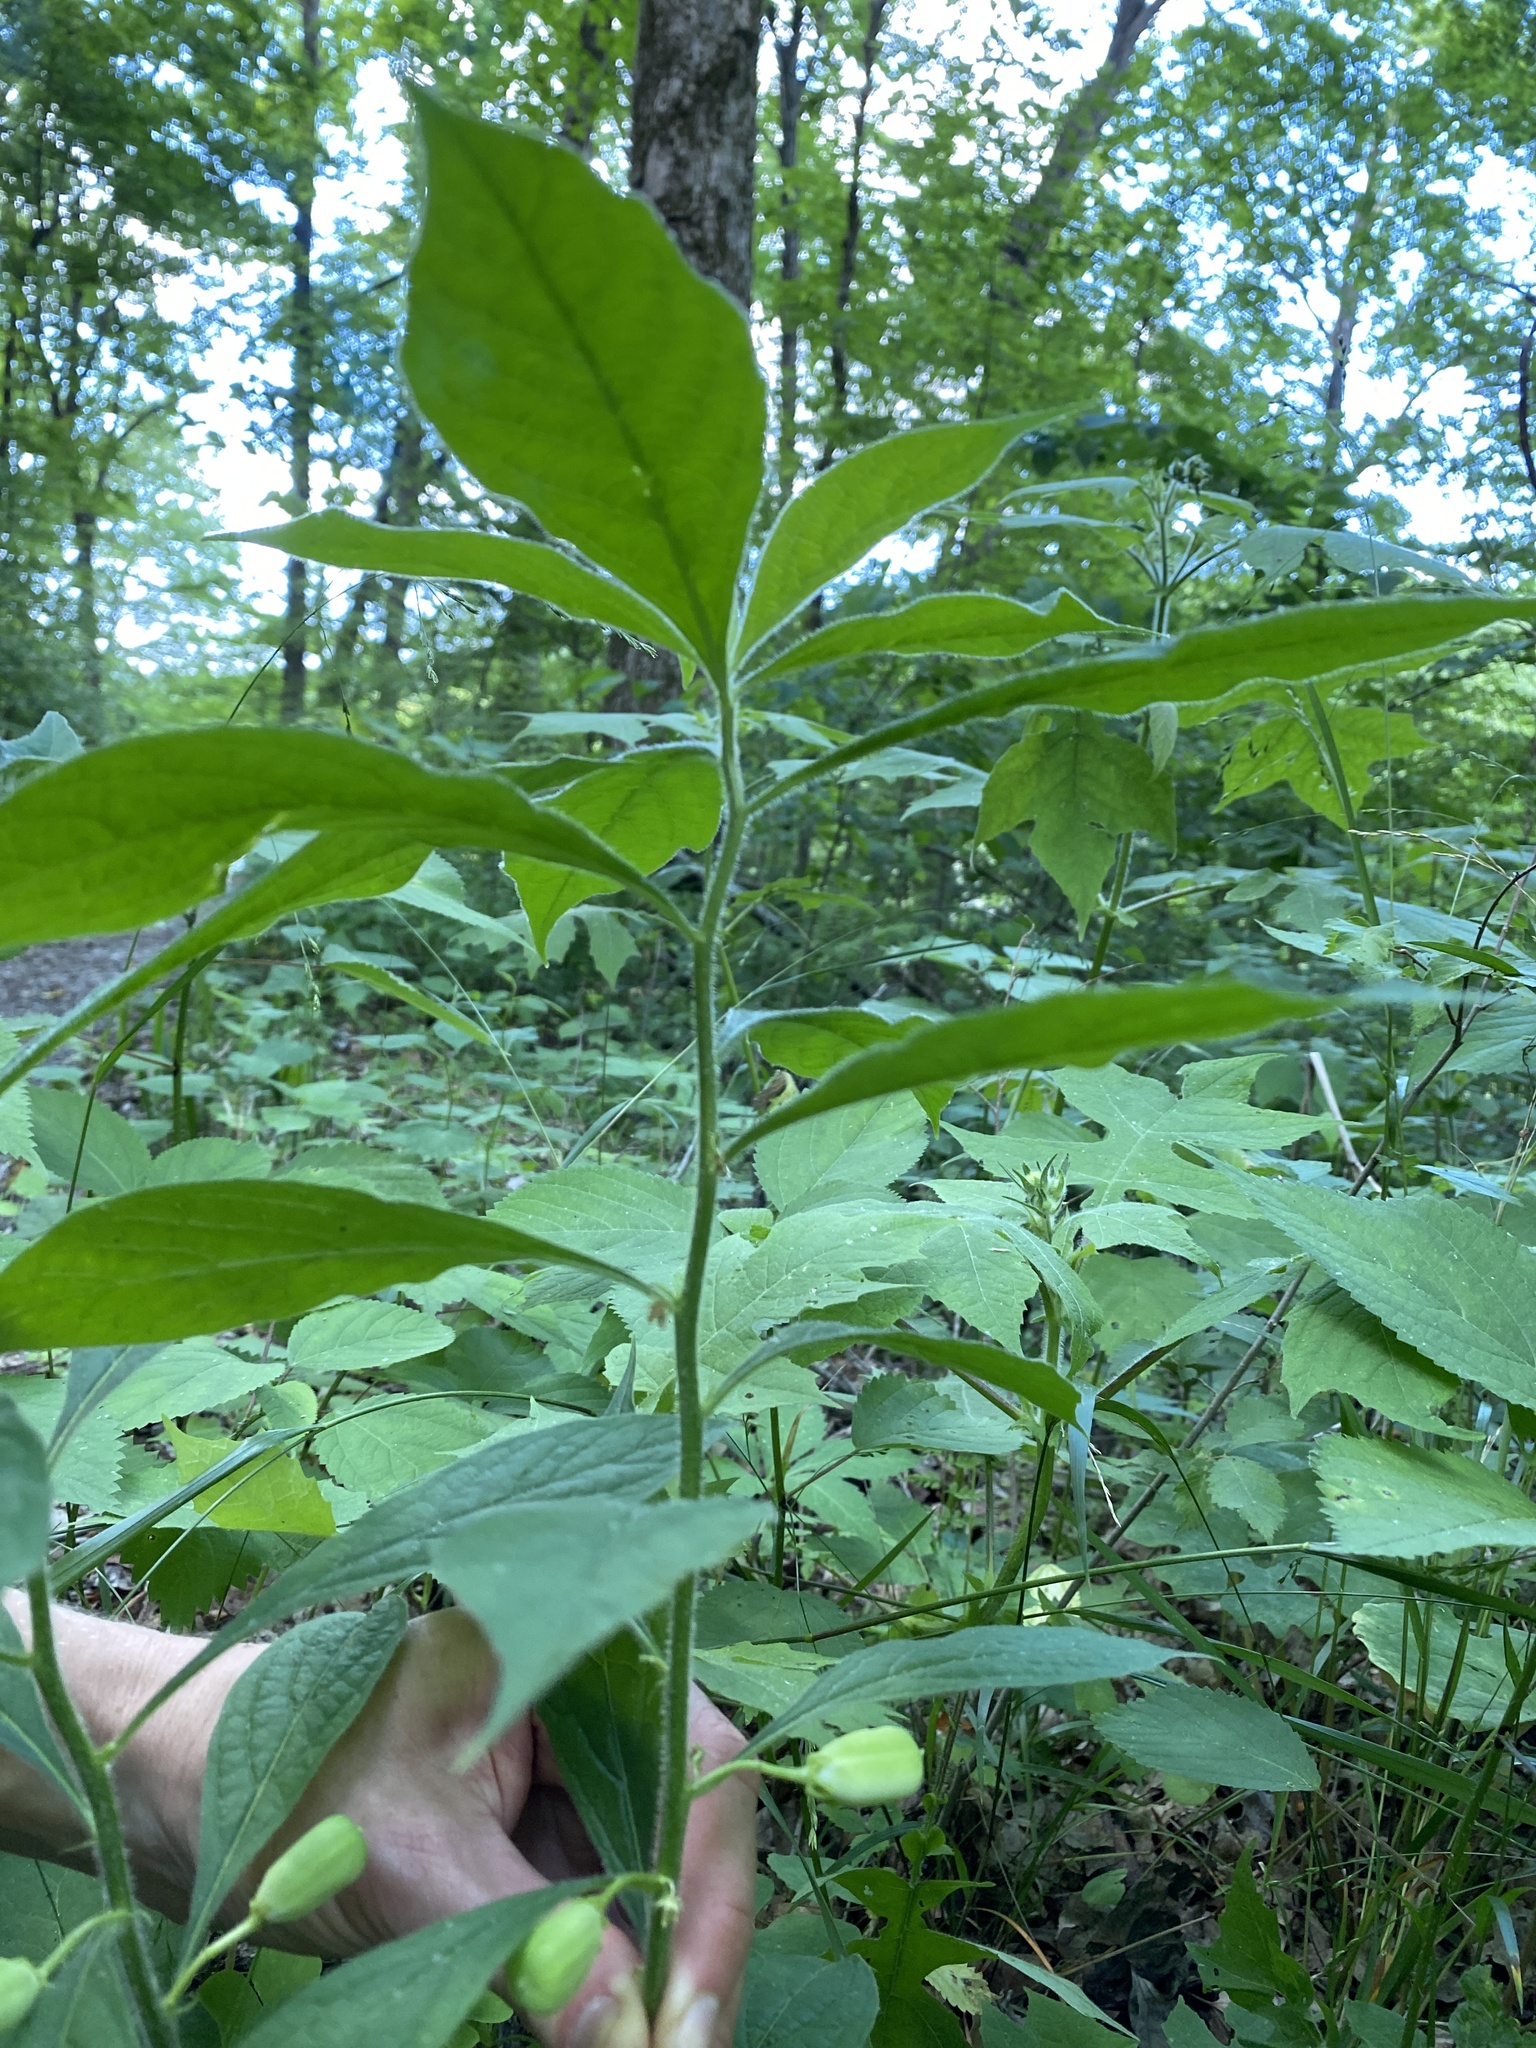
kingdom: Plantae
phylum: Tracheophyta
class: Magnoliopsida
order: Malpighiales
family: Violaceae
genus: Cubelium
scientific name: Cubelium concolor
